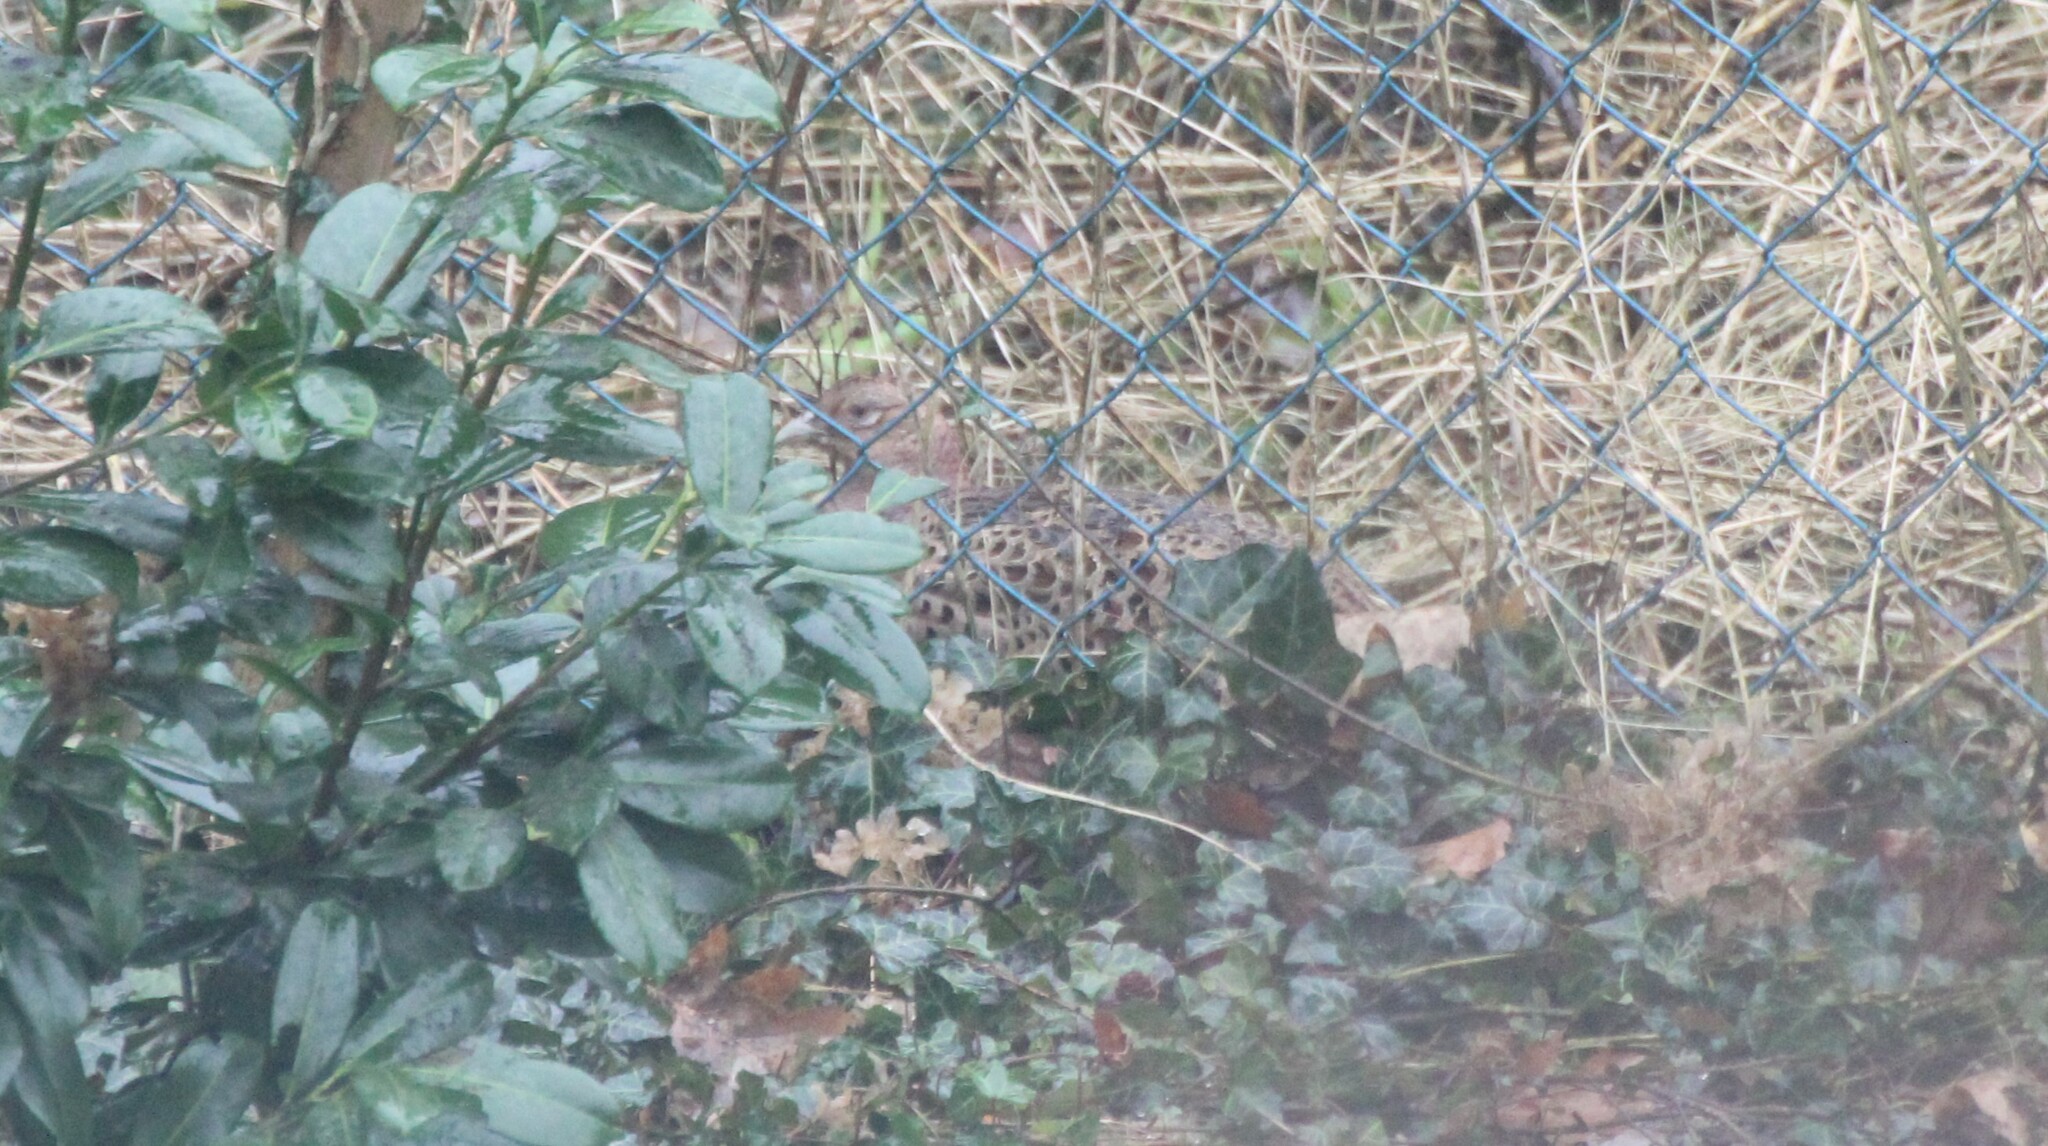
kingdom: Animalia
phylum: Chordata
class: Aves
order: Galliformes
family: Phasianidae
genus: Phasianus
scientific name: Phasianus colchicus
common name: Common pheasant
